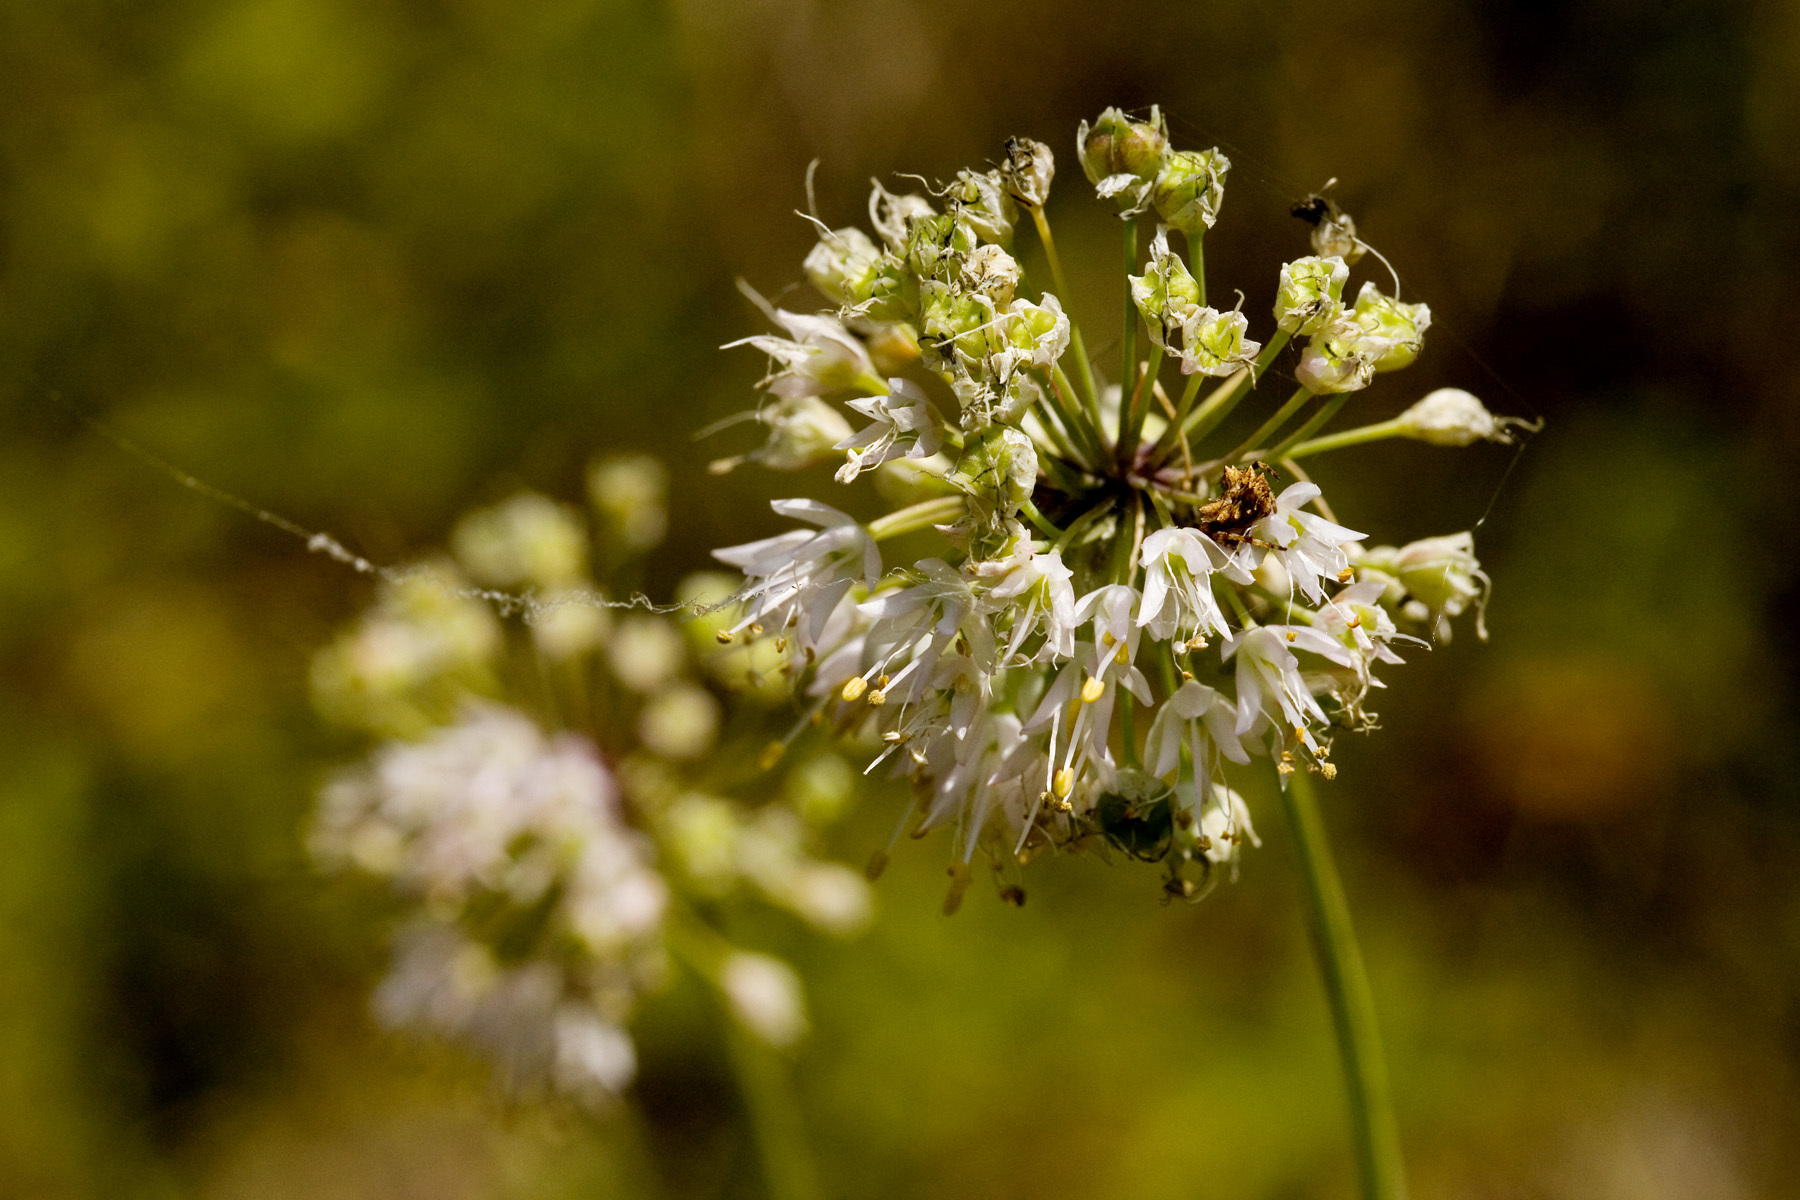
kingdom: Plantae
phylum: Tracheophyta
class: Liliopsida
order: Asparagales
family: Amaryllidaceae
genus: Allium
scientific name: Allium cernuum
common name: Nodding onion
